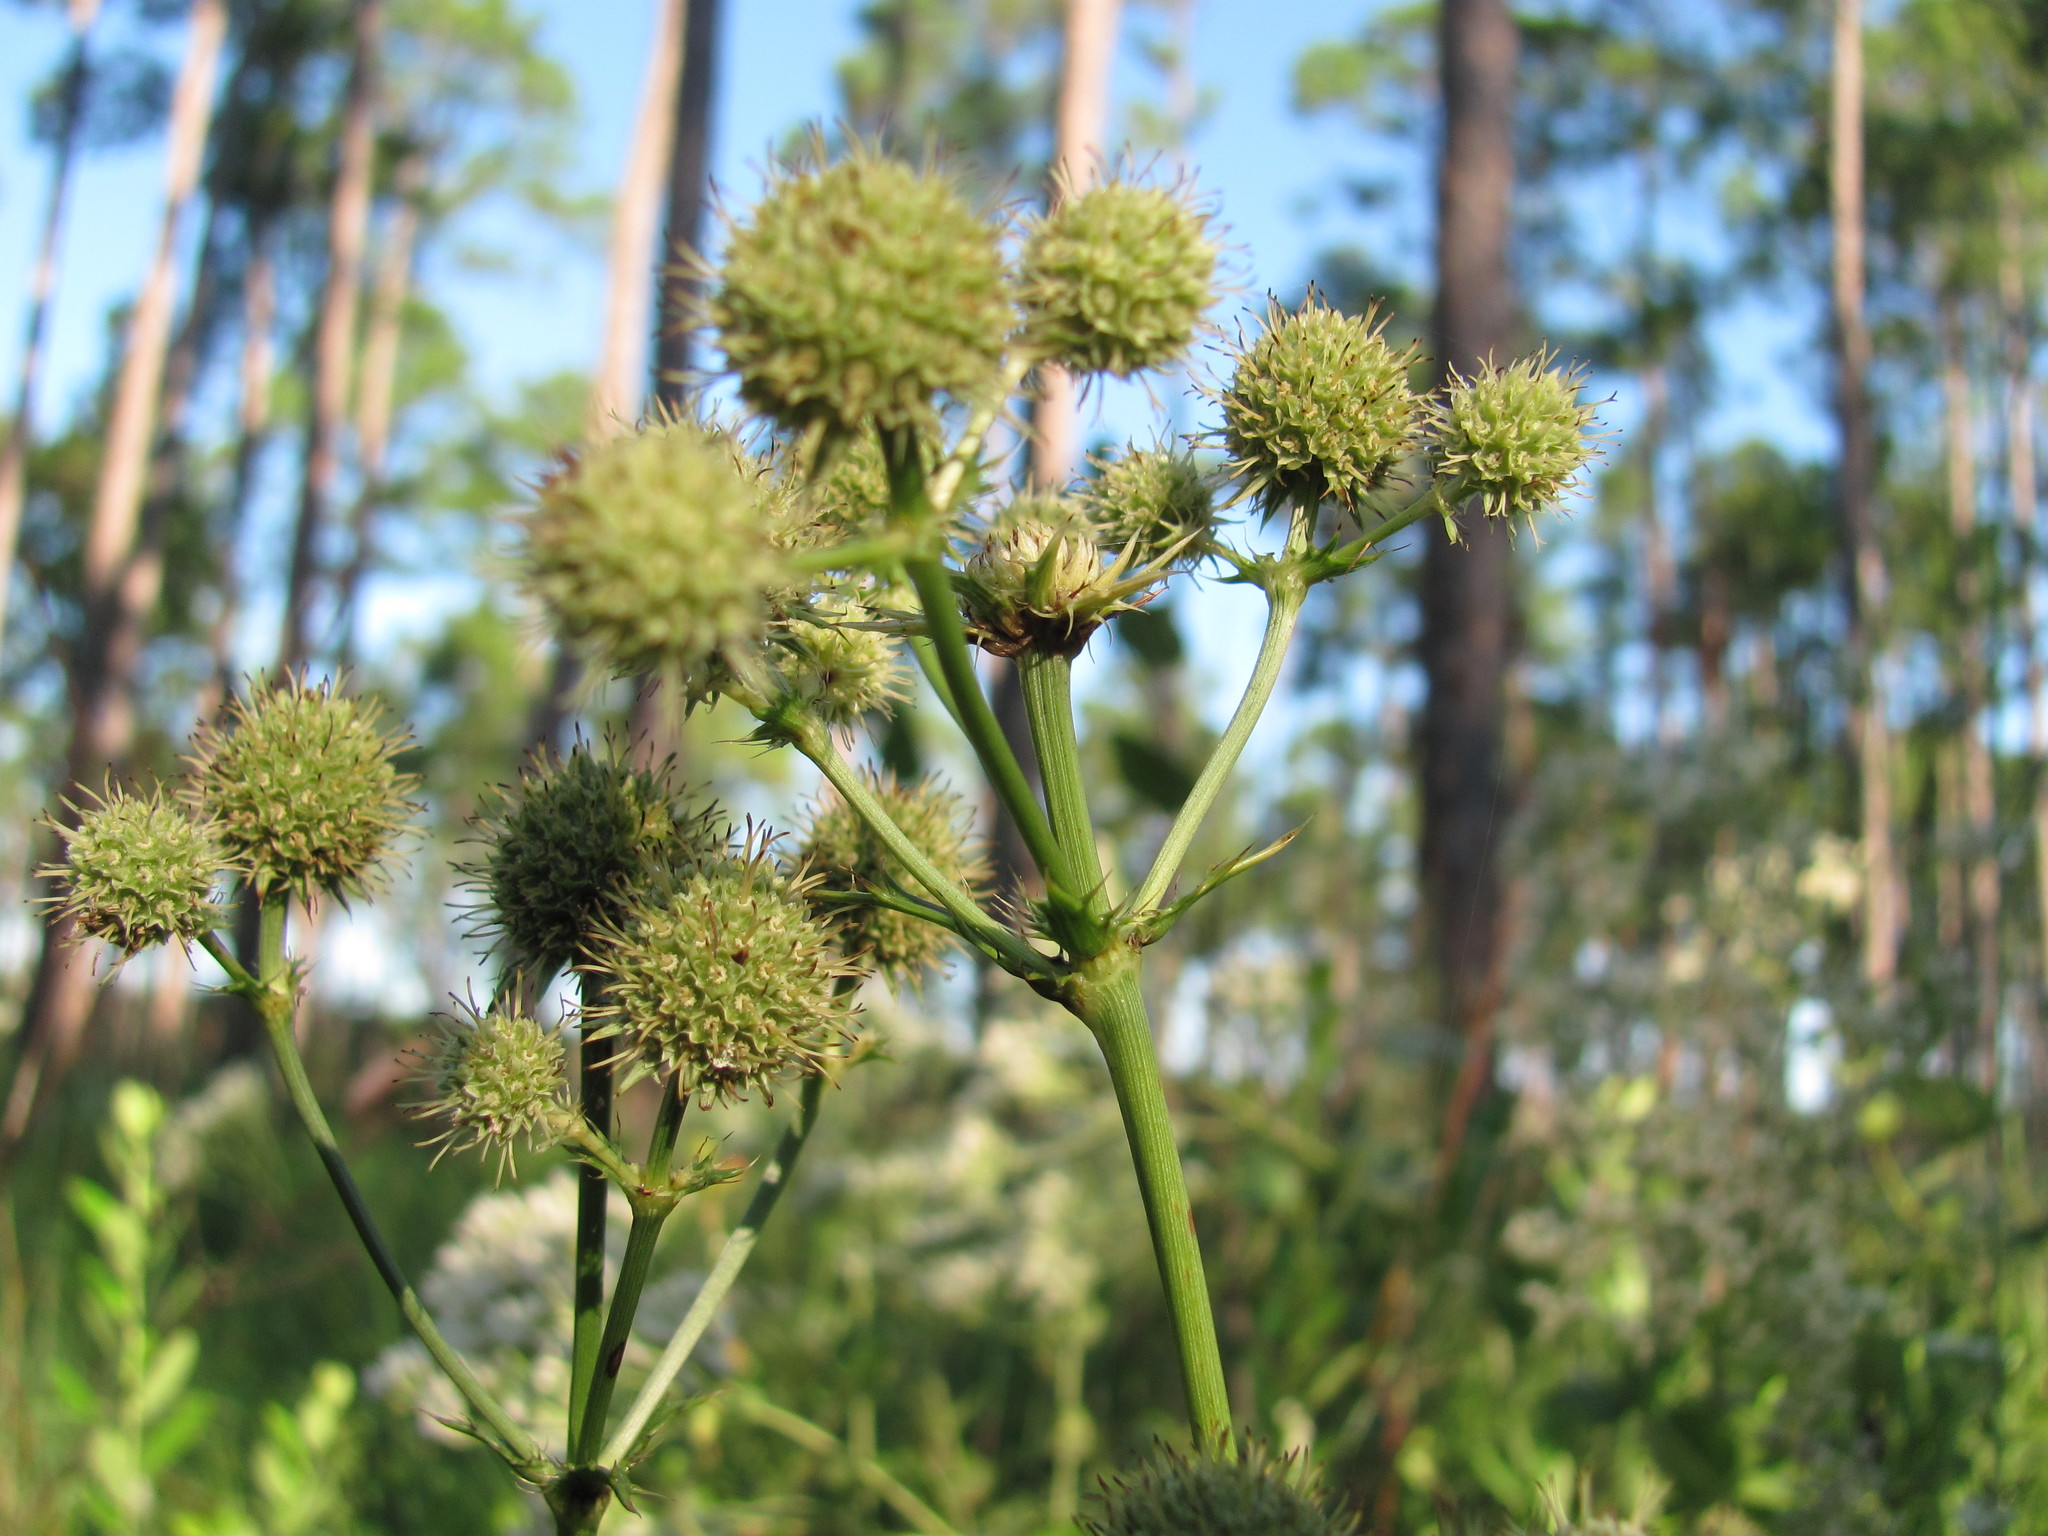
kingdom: Plantae
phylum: Tracheophyta
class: Magnoliopsida
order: Apiales
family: Apiaceae
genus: Eryngium
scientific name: Eryngium yuccifolium
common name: Button eryngo
